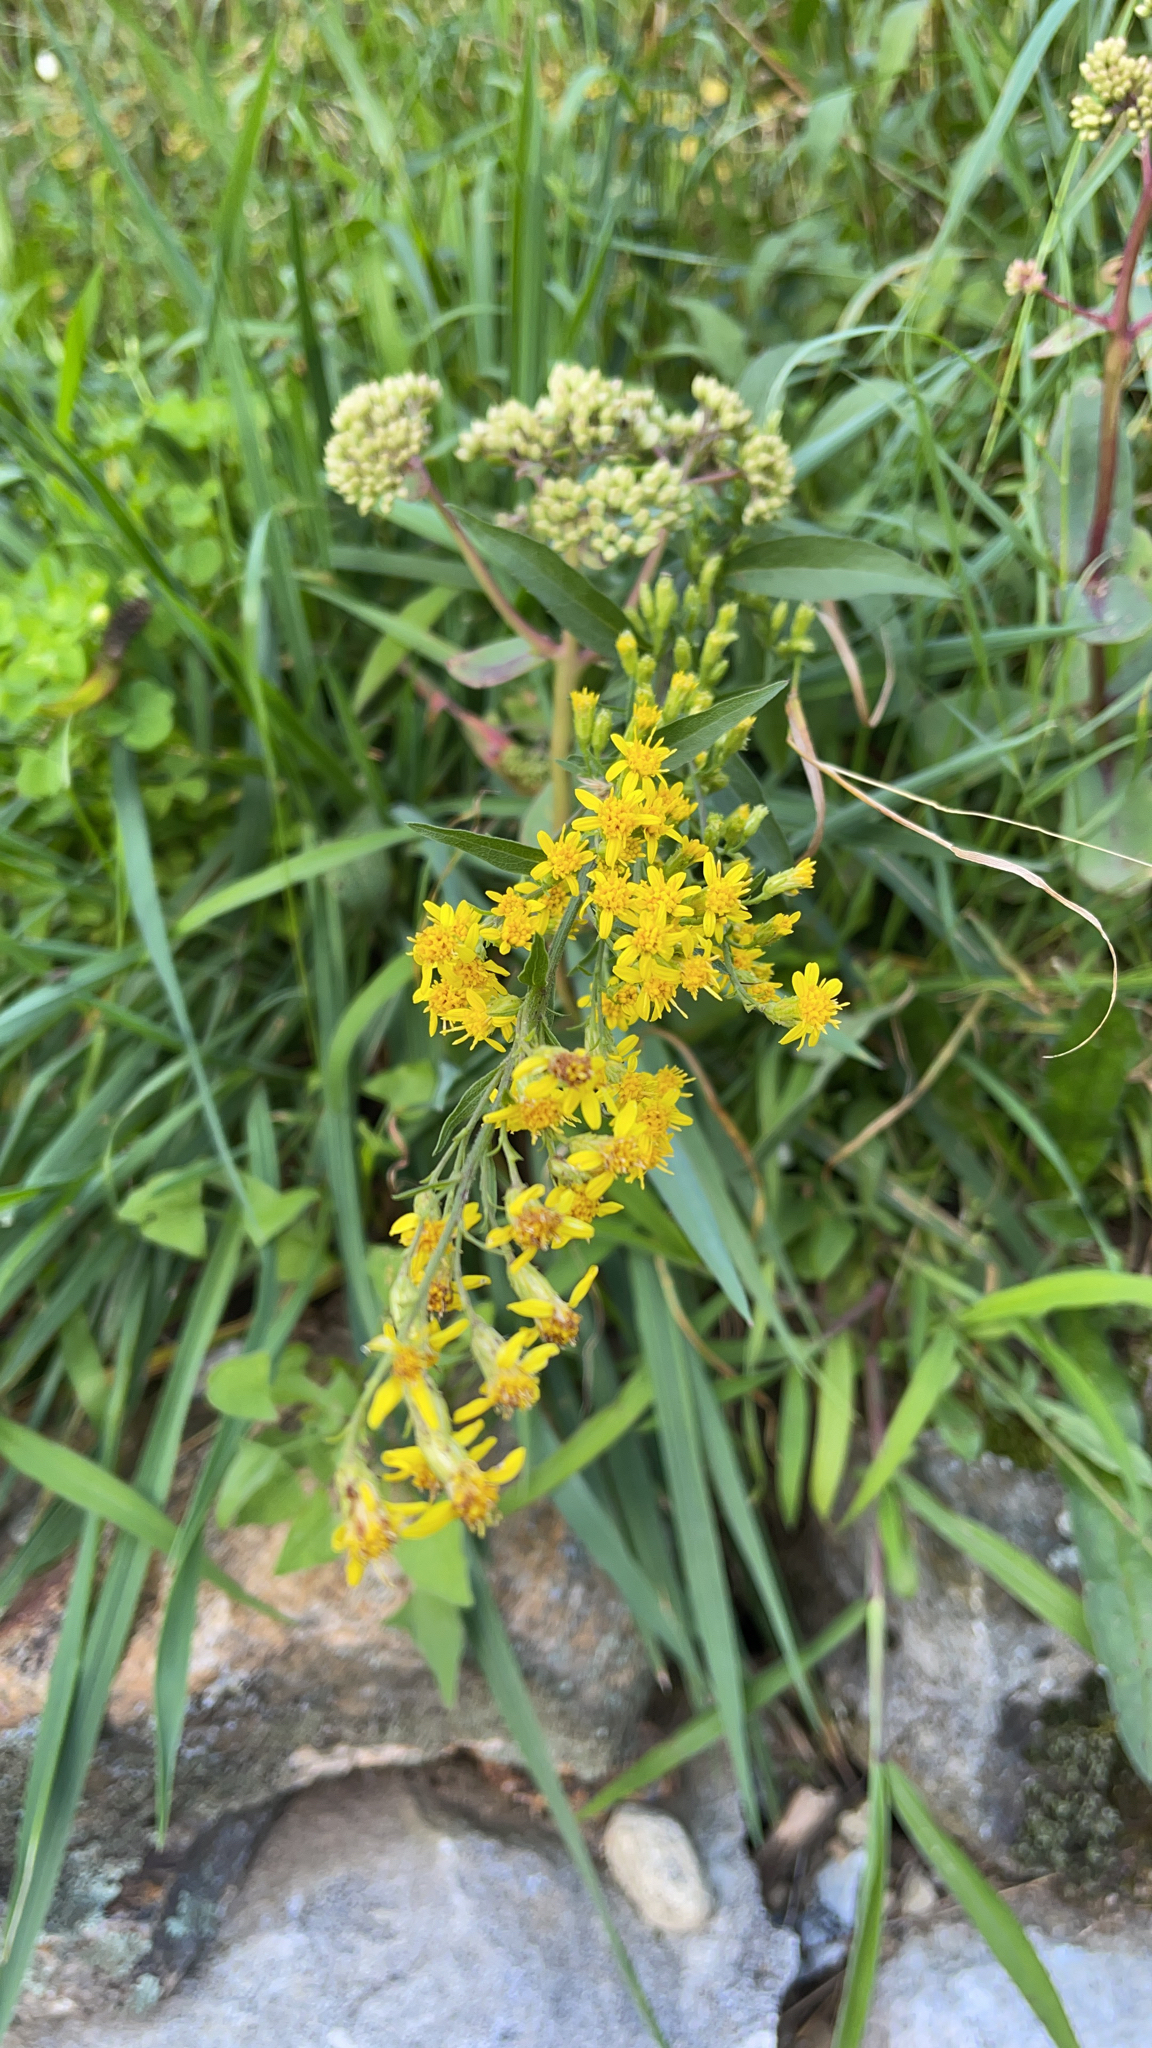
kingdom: Plantae
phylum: Tracheophyta
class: Magnoliopsida
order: Asterales
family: Asteraceae
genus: Solidago
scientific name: Solidago virgaurea
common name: Goldenrod
